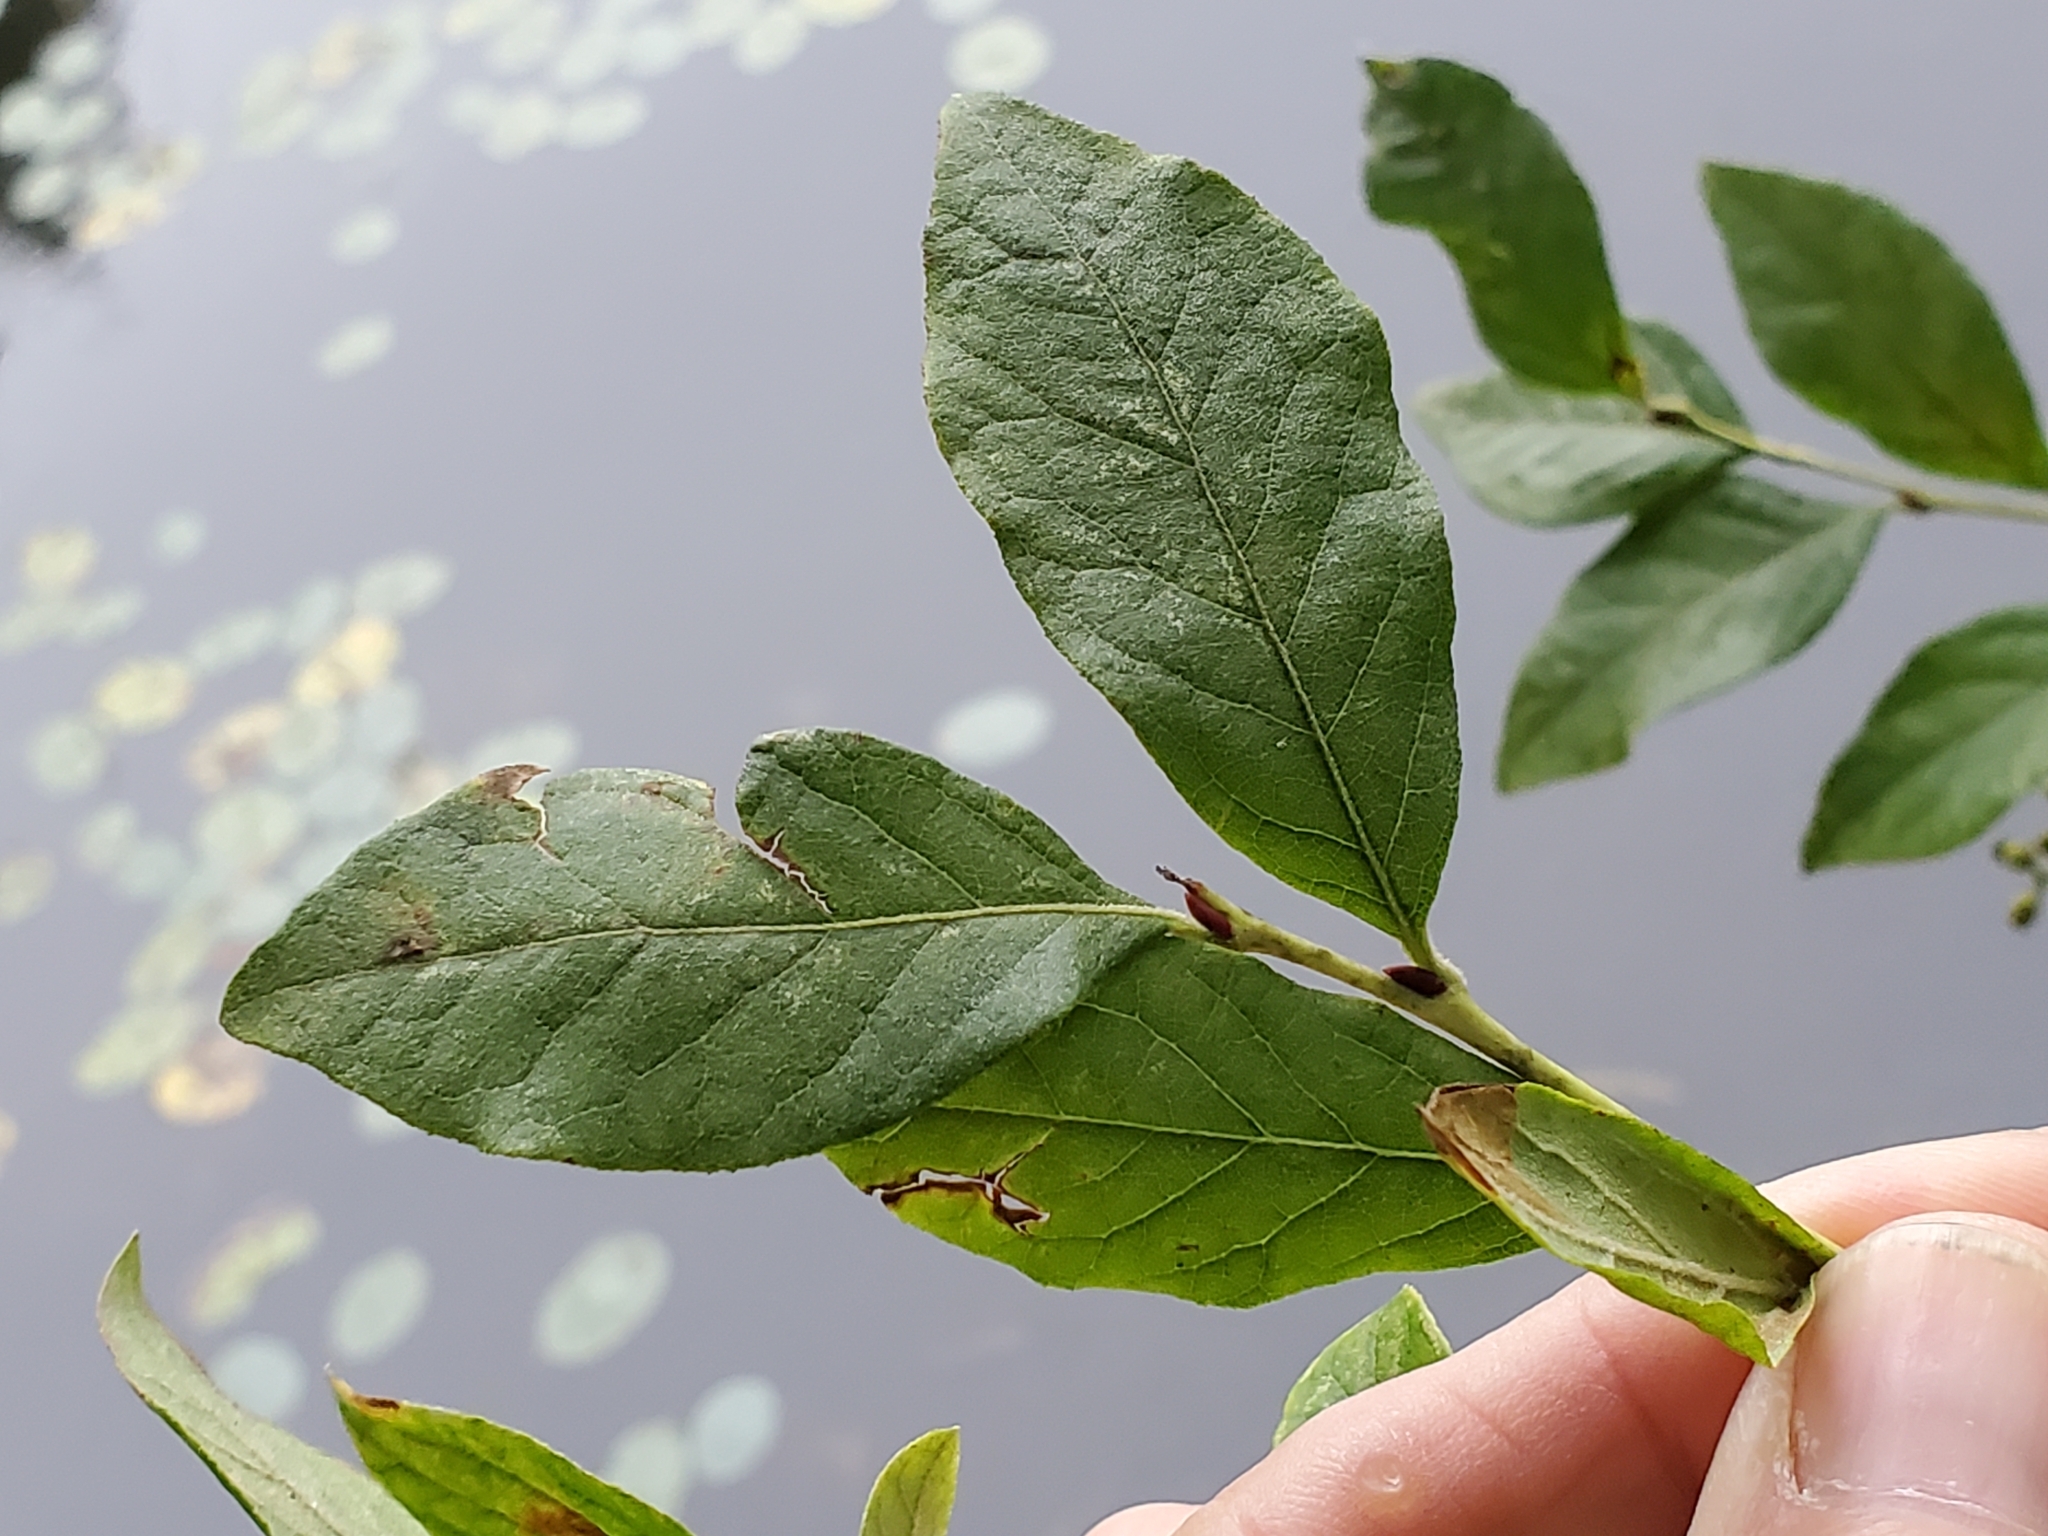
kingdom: Plantae
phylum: Tracheophyta
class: Magnoliopsida
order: Ericales
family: Ericaceae
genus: Lyonia
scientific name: Lyonia ligustrina
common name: Maleberry
